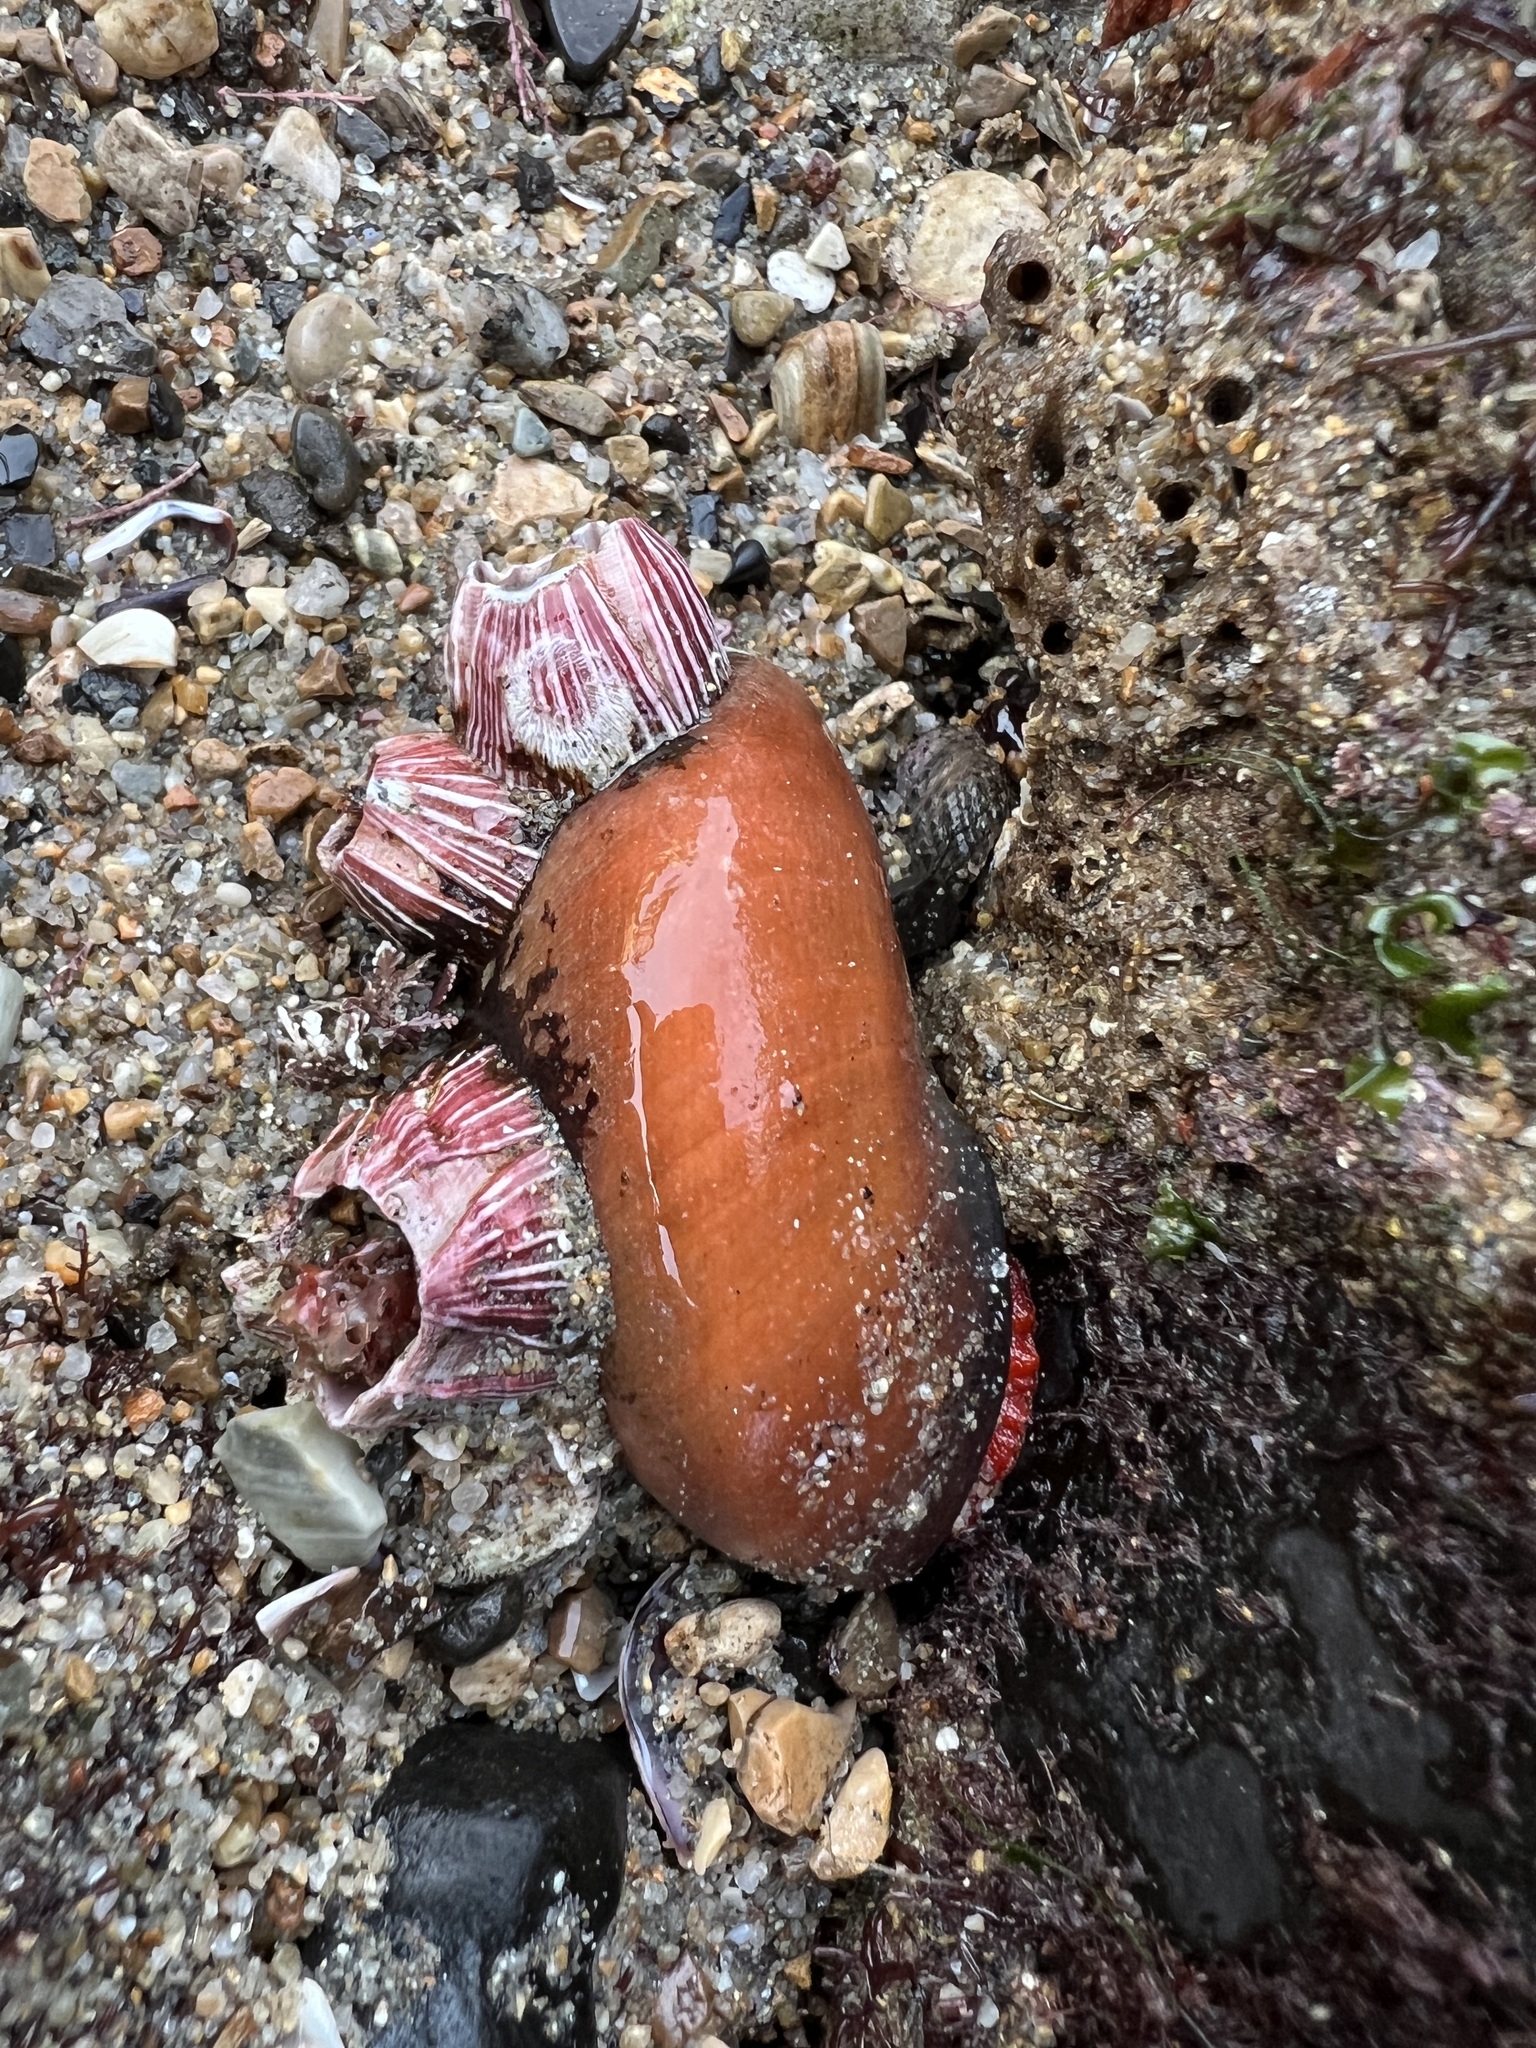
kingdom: Animalia
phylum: Mollusca
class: Gastropoda
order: Trochida
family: Tegulidae
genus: Norrisia
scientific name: Norrisia norrisii
